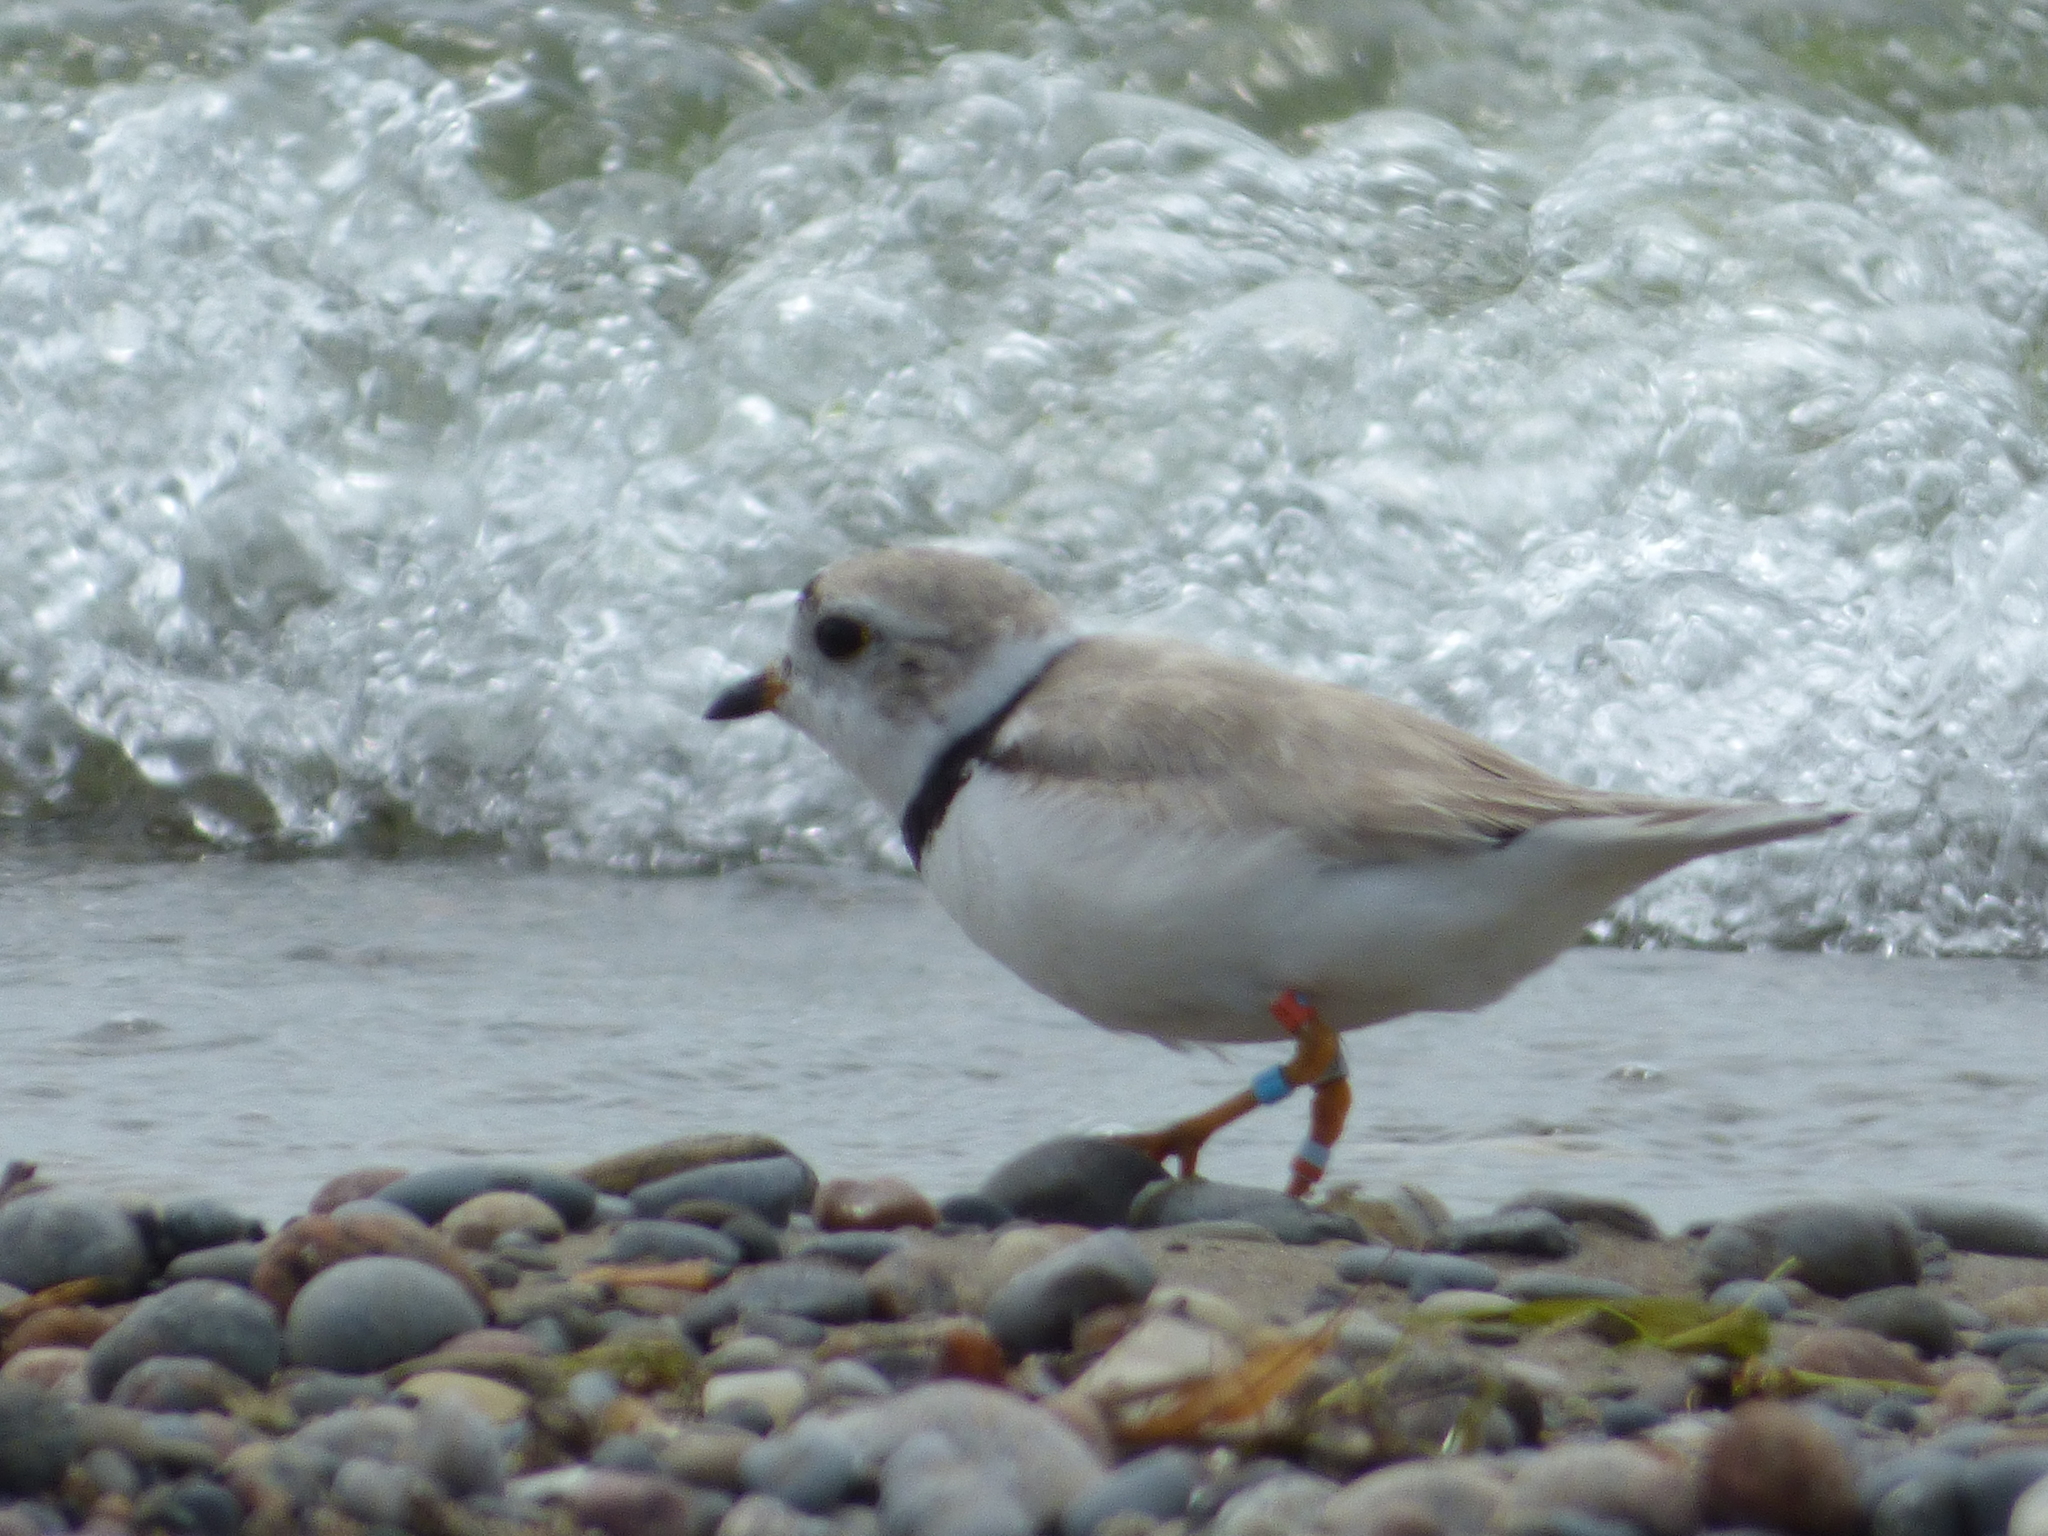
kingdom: Animalia
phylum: Chordata
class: Aves
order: Charadriiformes
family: Charadriidae
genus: Charadrius
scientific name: Charadrius melodus
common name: Piping plover
